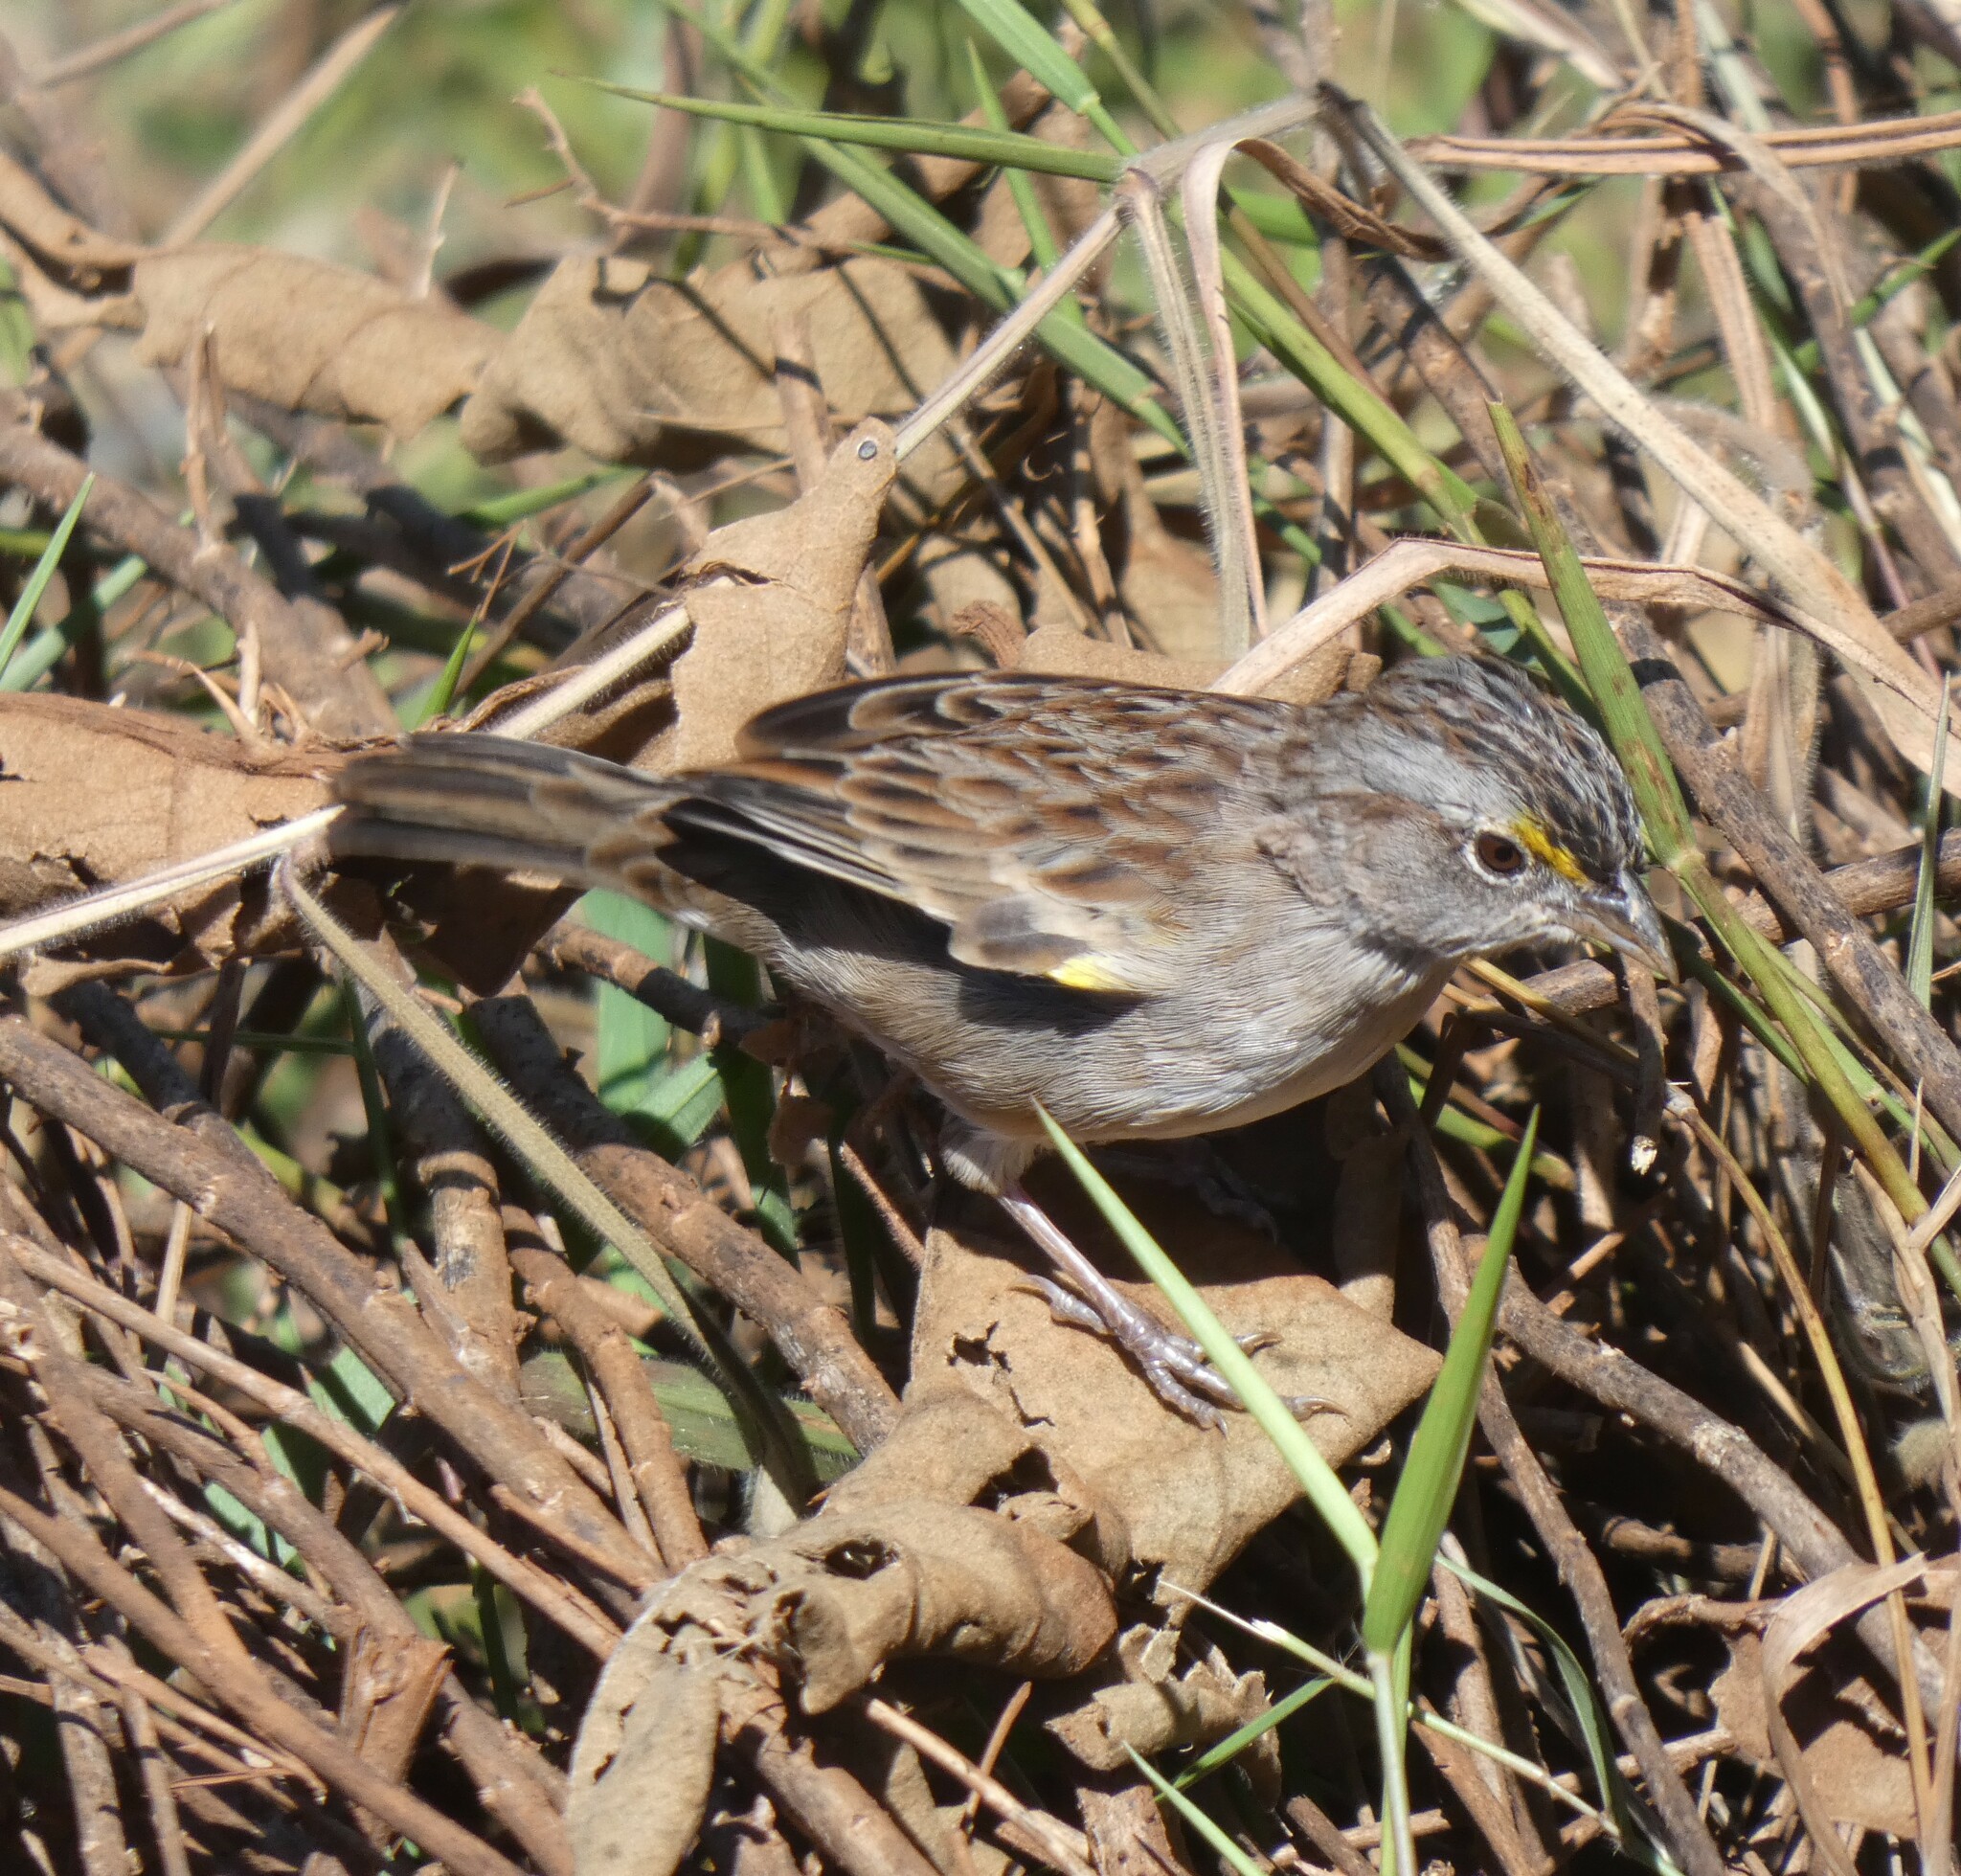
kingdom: Animalia
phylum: Chordata
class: Aves
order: Passeriformes
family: Passerellidae
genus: Ammodramus
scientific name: Ammodramus humeralis
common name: Grassland sparrow
